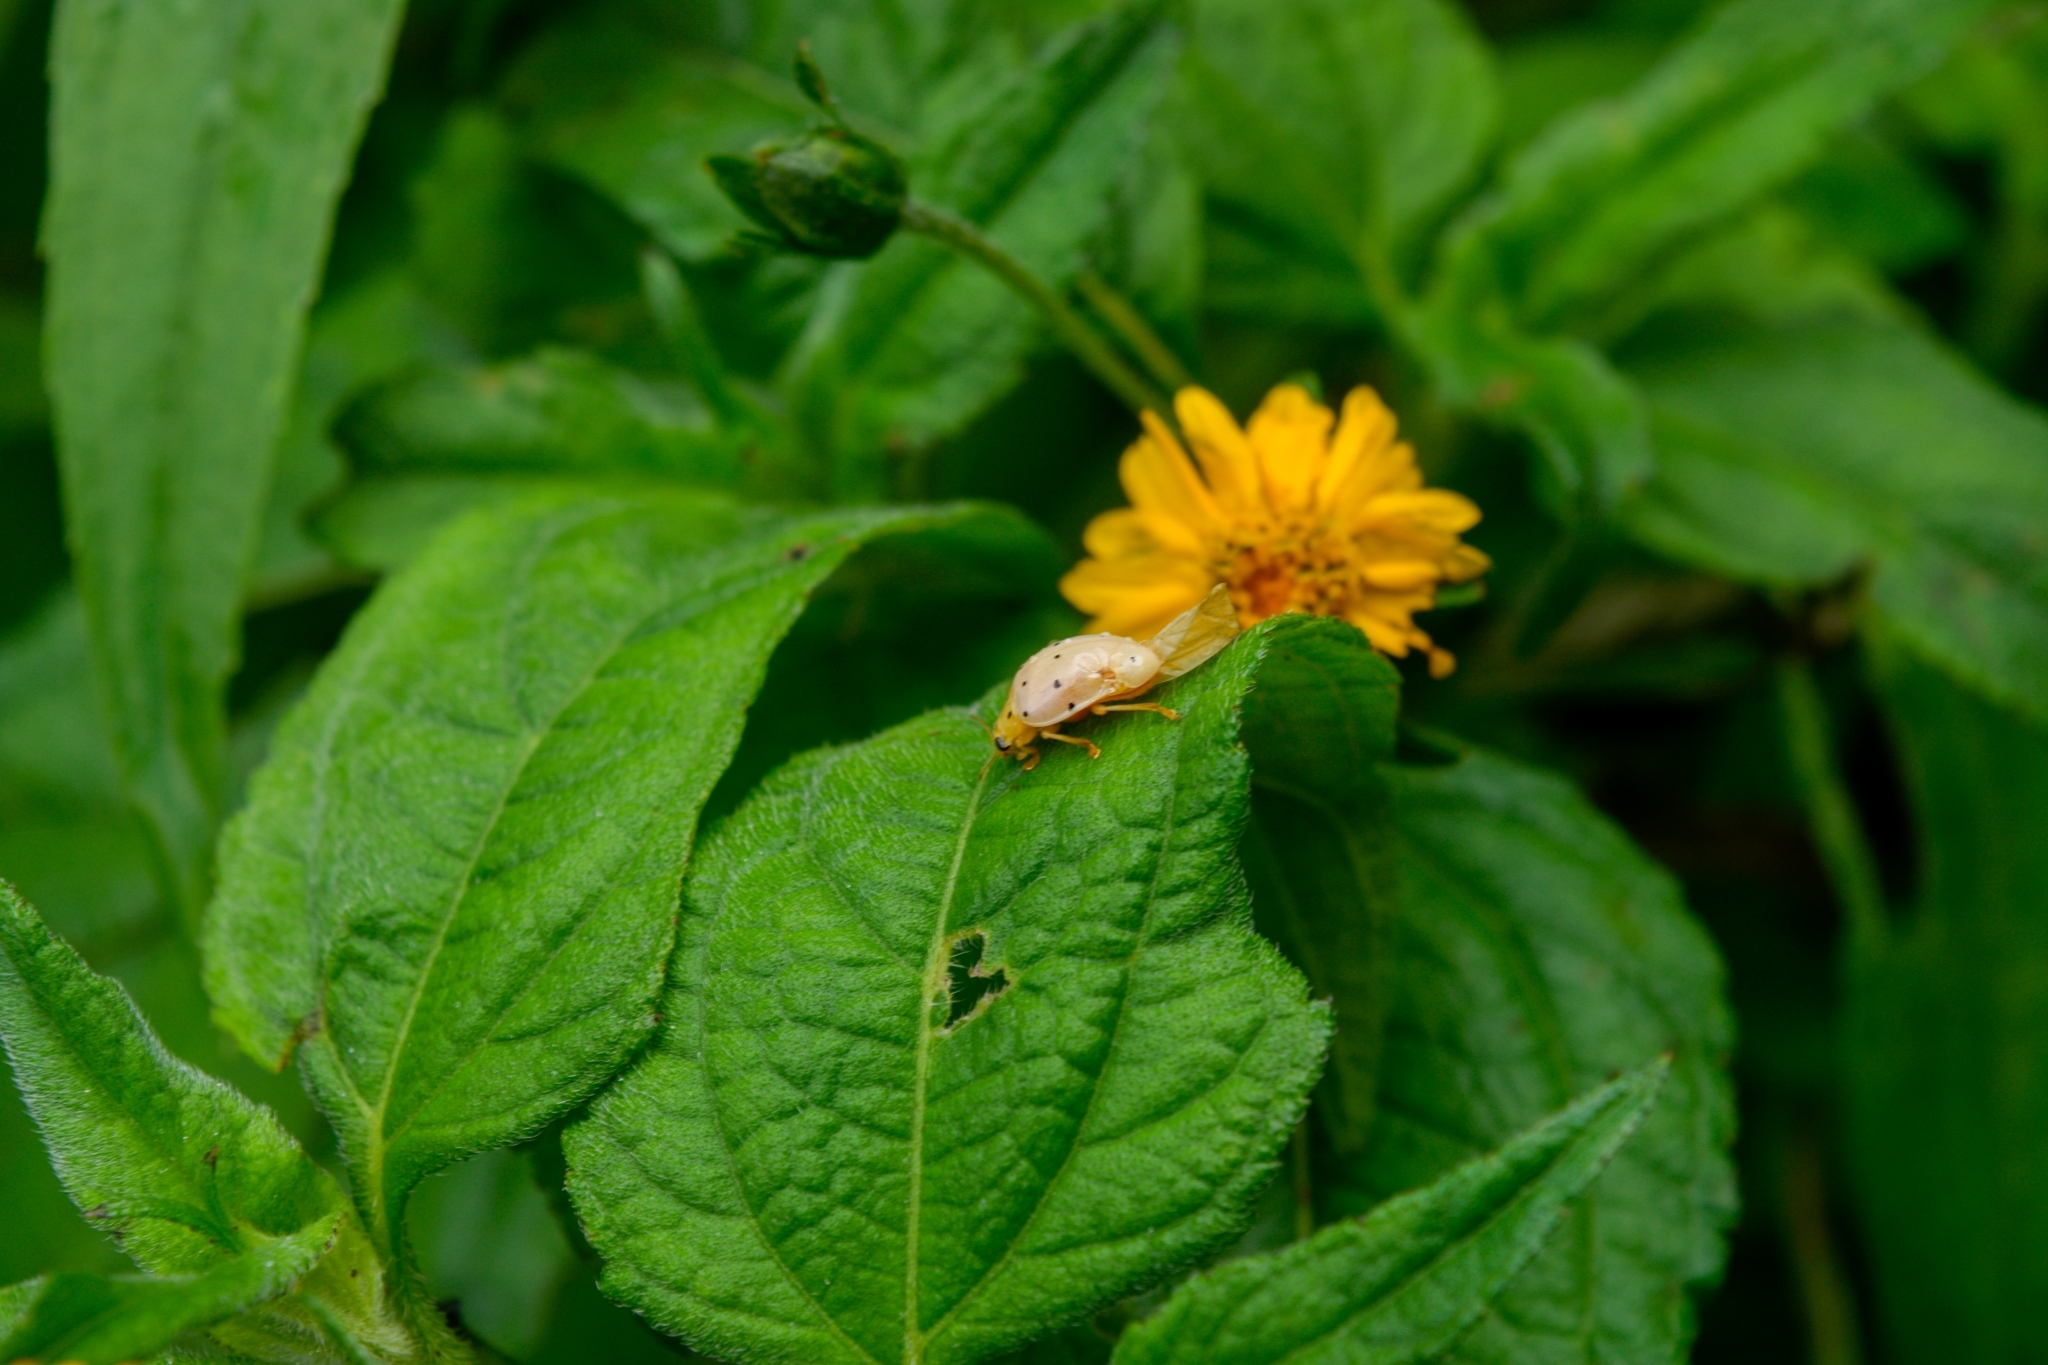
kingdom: Animalia
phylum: Arthropoda
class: Insecta
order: Coleoptera
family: Coccinellidae
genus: Neohalyzia
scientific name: Neohalyzia
